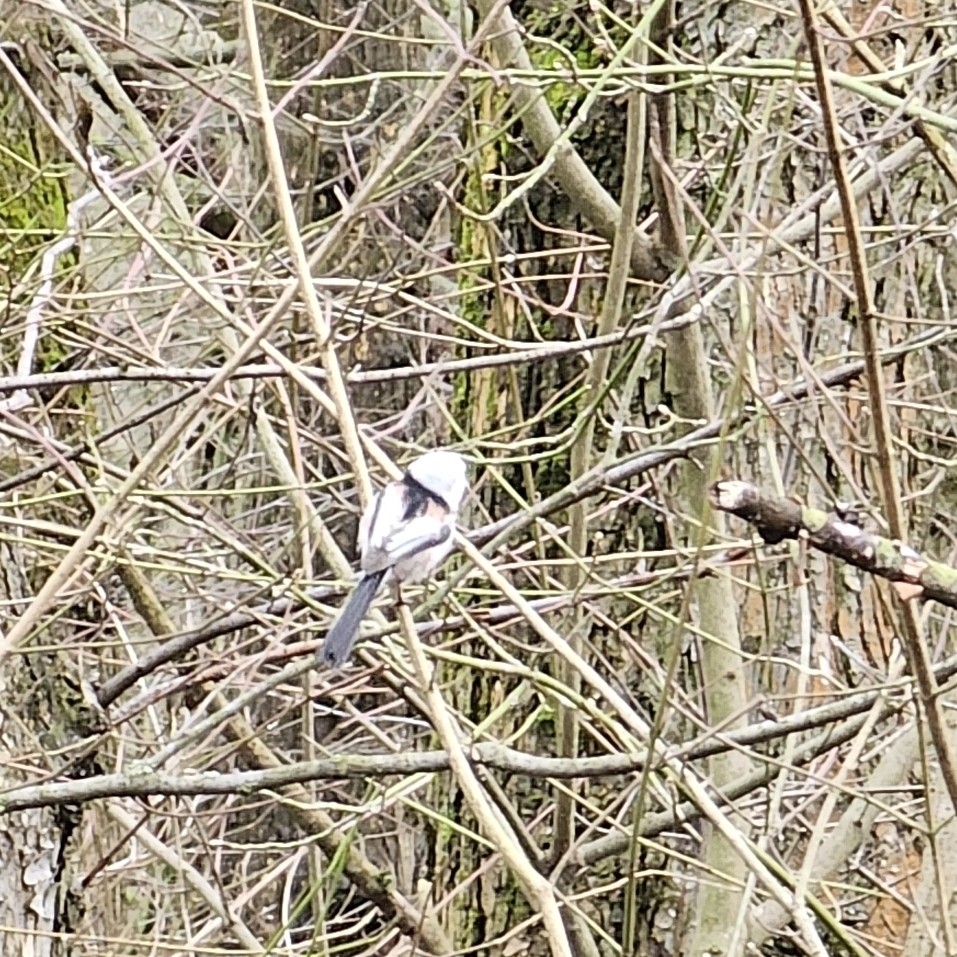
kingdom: Animalia
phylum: Chordata
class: Aves
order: Passeriformes
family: Aegithalidae
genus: Aegithalos
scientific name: Aegithalos caudatus
